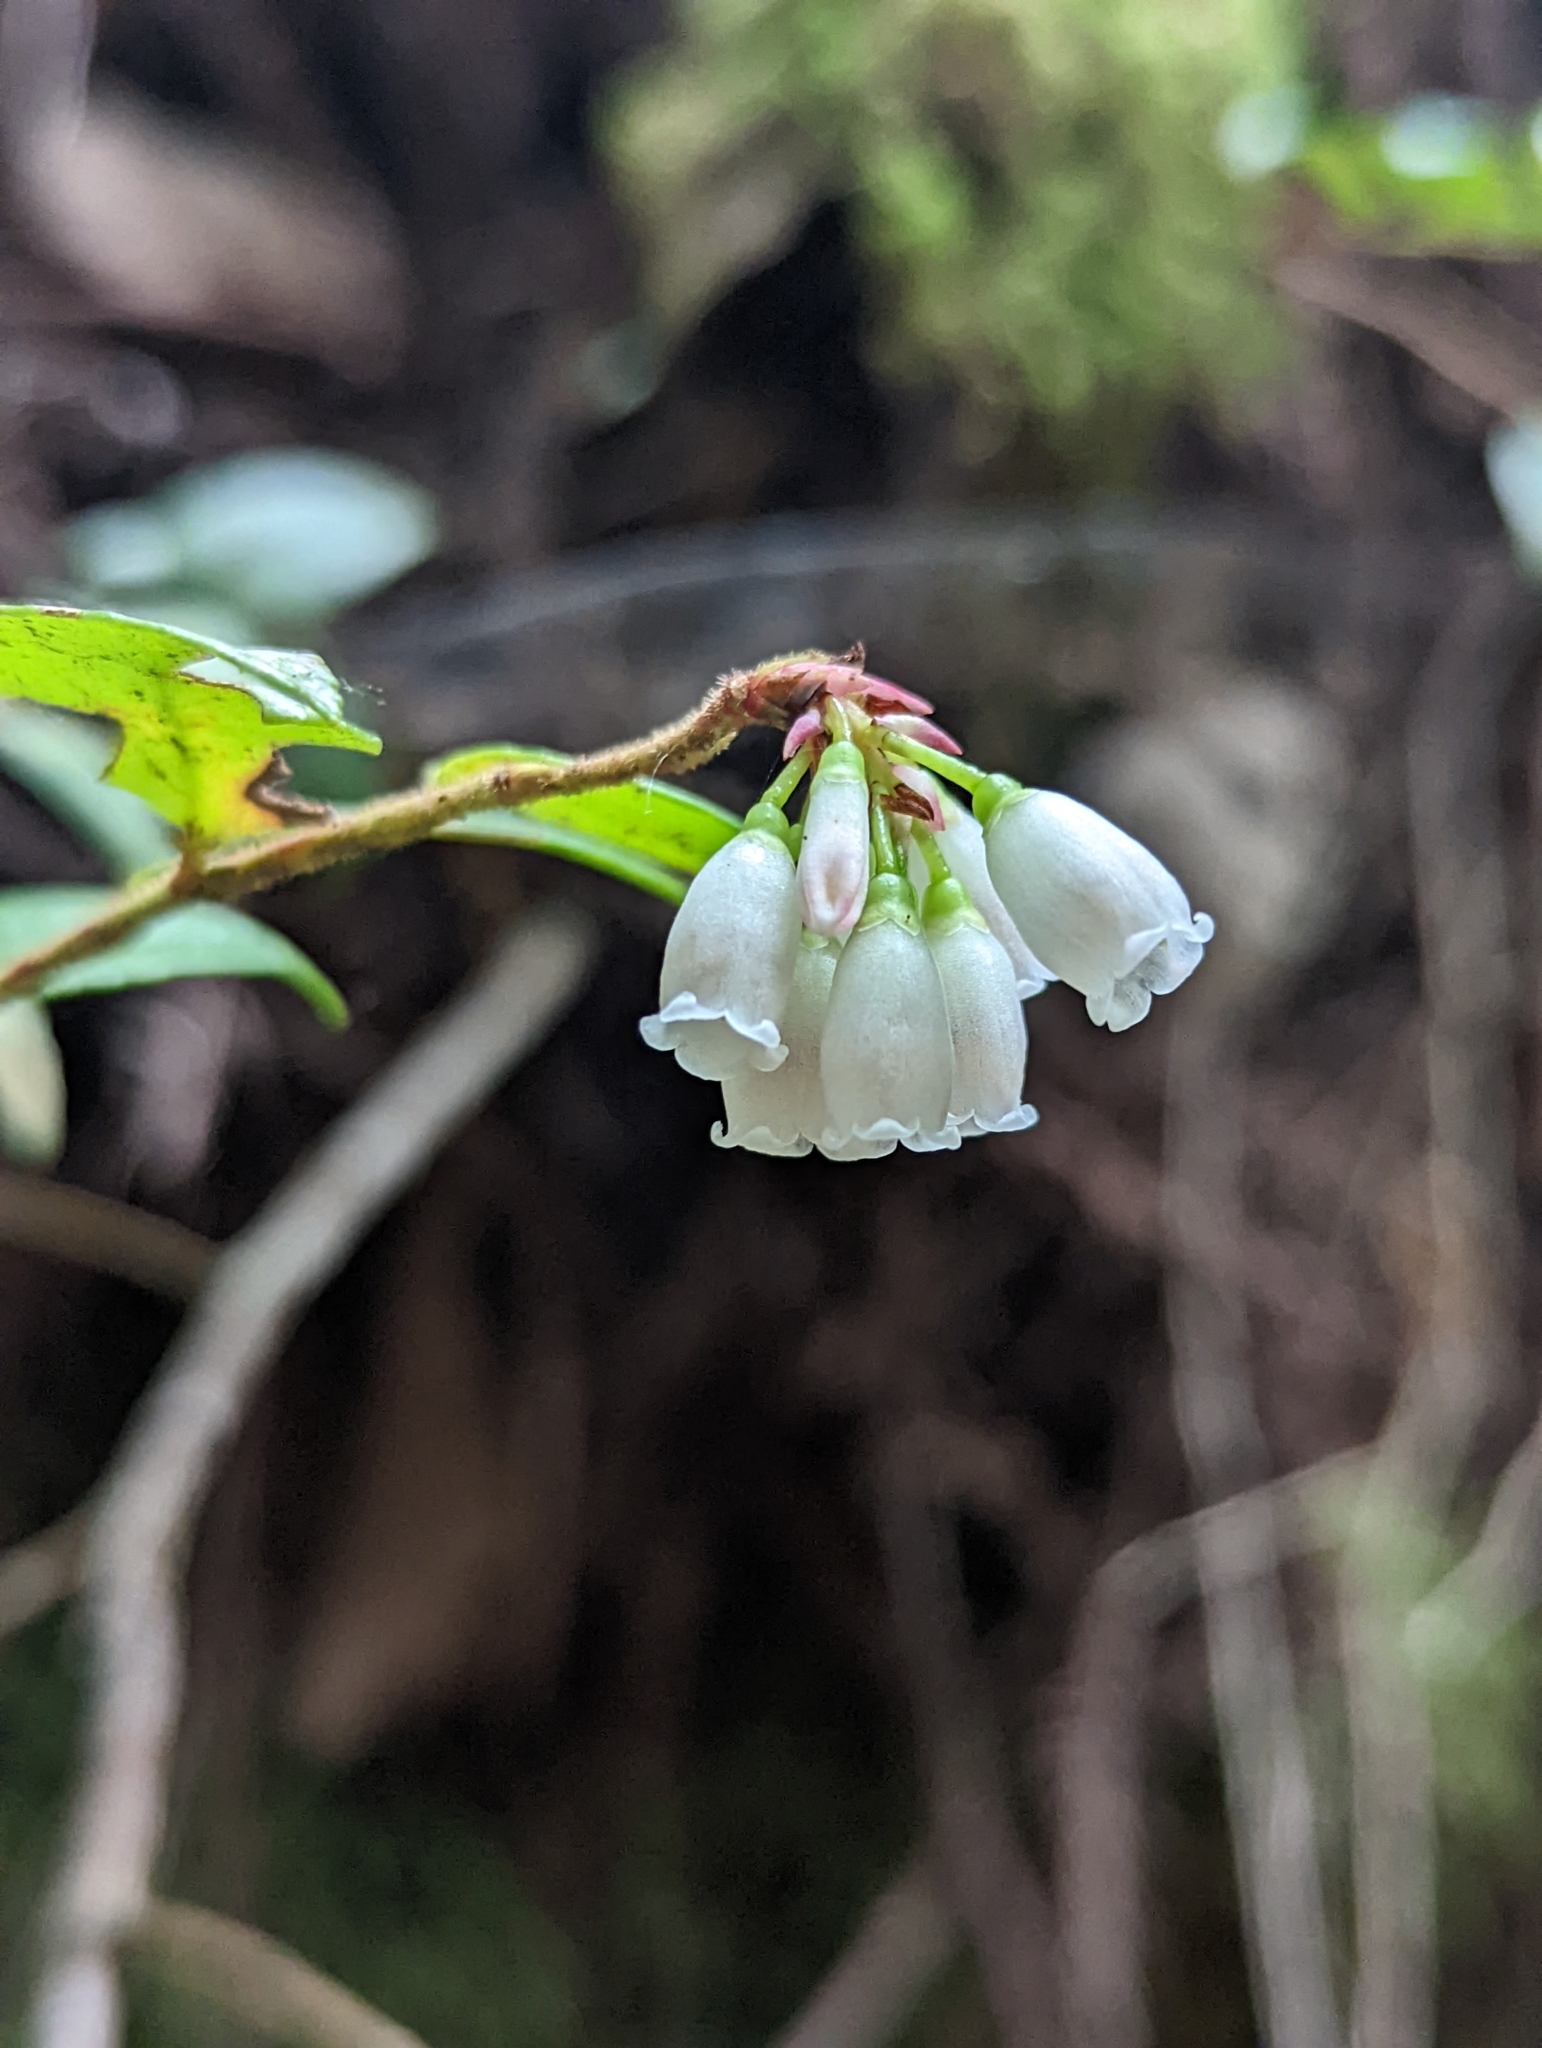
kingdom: Plantae
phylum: Tracheophyta
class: Magnoliopsida
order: Ericales
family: Ericaceae
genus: Vaccinium
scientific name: Vaccinium ovatum
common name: California-huckleberry
